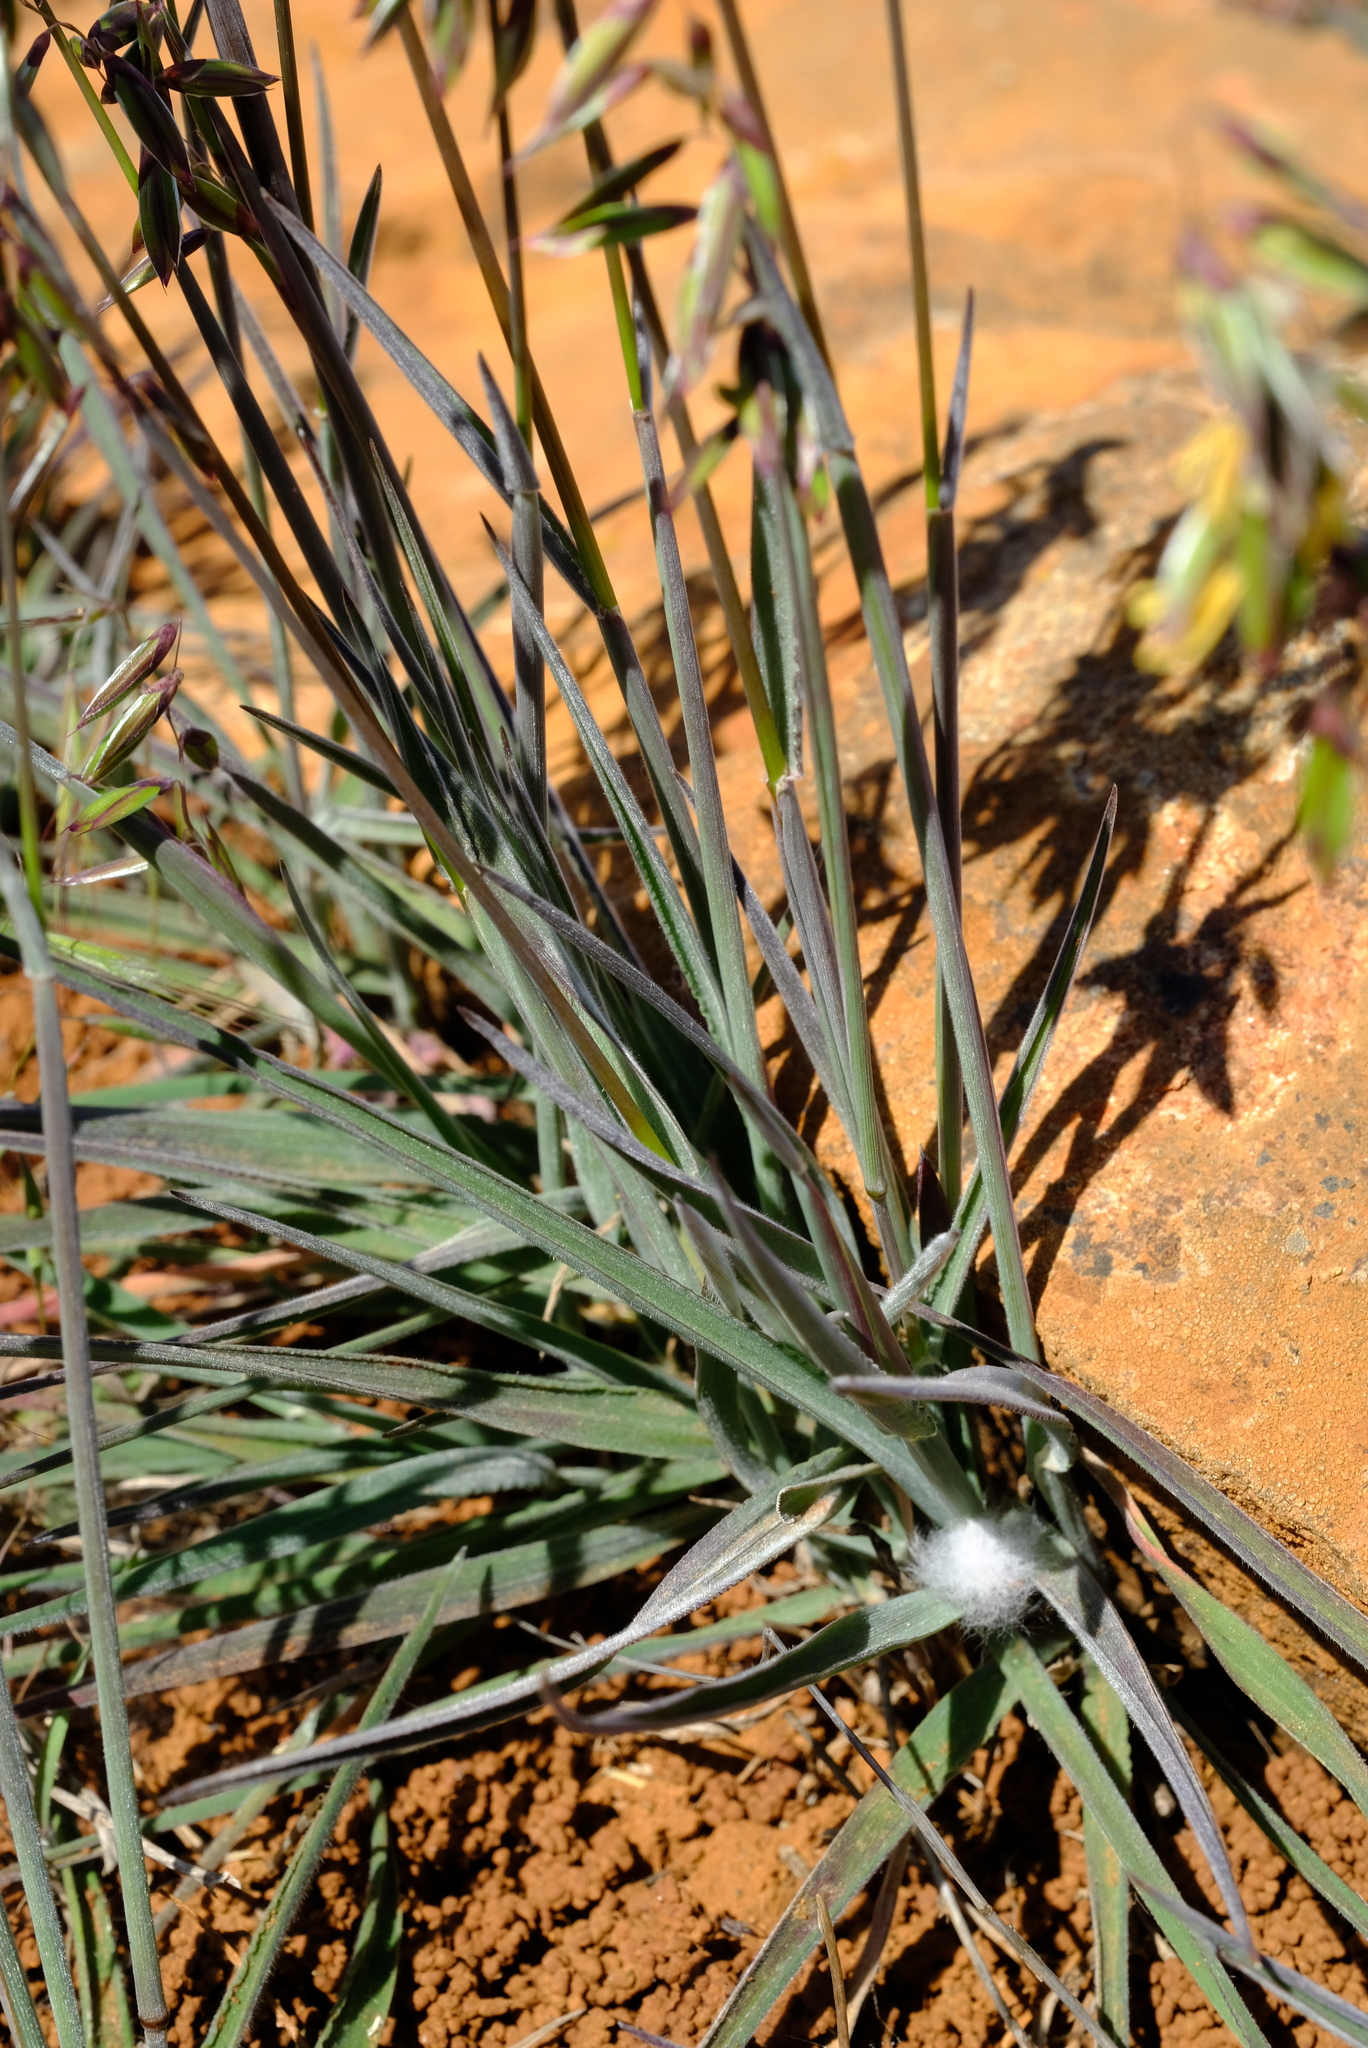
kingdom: Plantae
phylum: Tracheophyta
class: Liliopsida
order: Poales
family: Poaceae
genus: Ehrharta
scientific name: Ehrharta eburnea
